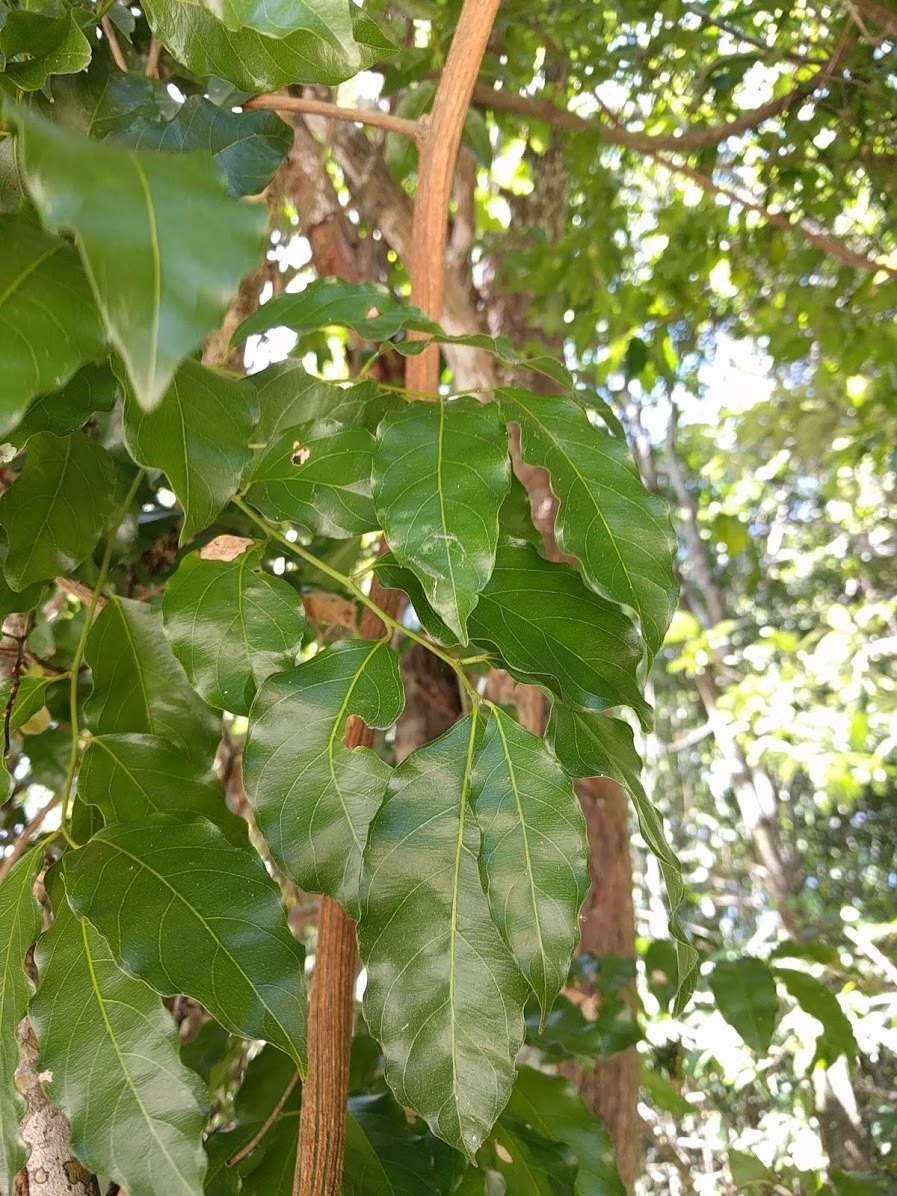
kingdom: Plantae
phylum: Tracheophyta
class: Magnoliopsida
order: Rosales
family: Rhamnaceae
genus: Ventilago
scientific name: Ventilago pubiflora
